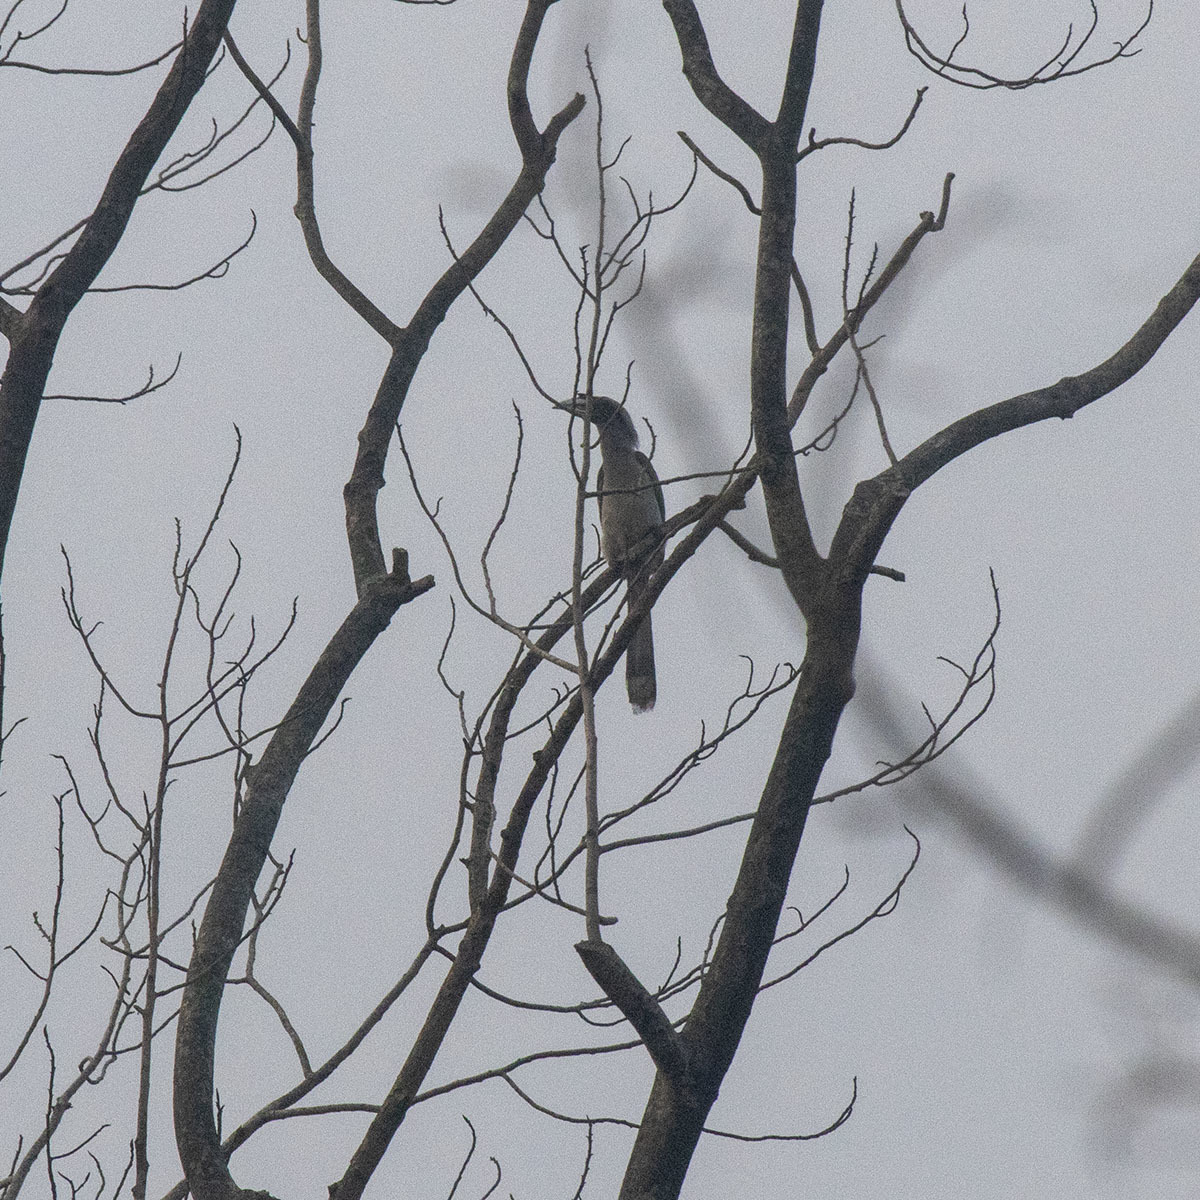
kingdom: Animalia
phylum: Chordata
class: Aves
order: Bucerotiformes
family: Bucerotidae
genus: Ocyceros
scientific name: Ocyceros birostris
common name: Indian grey hornbill
